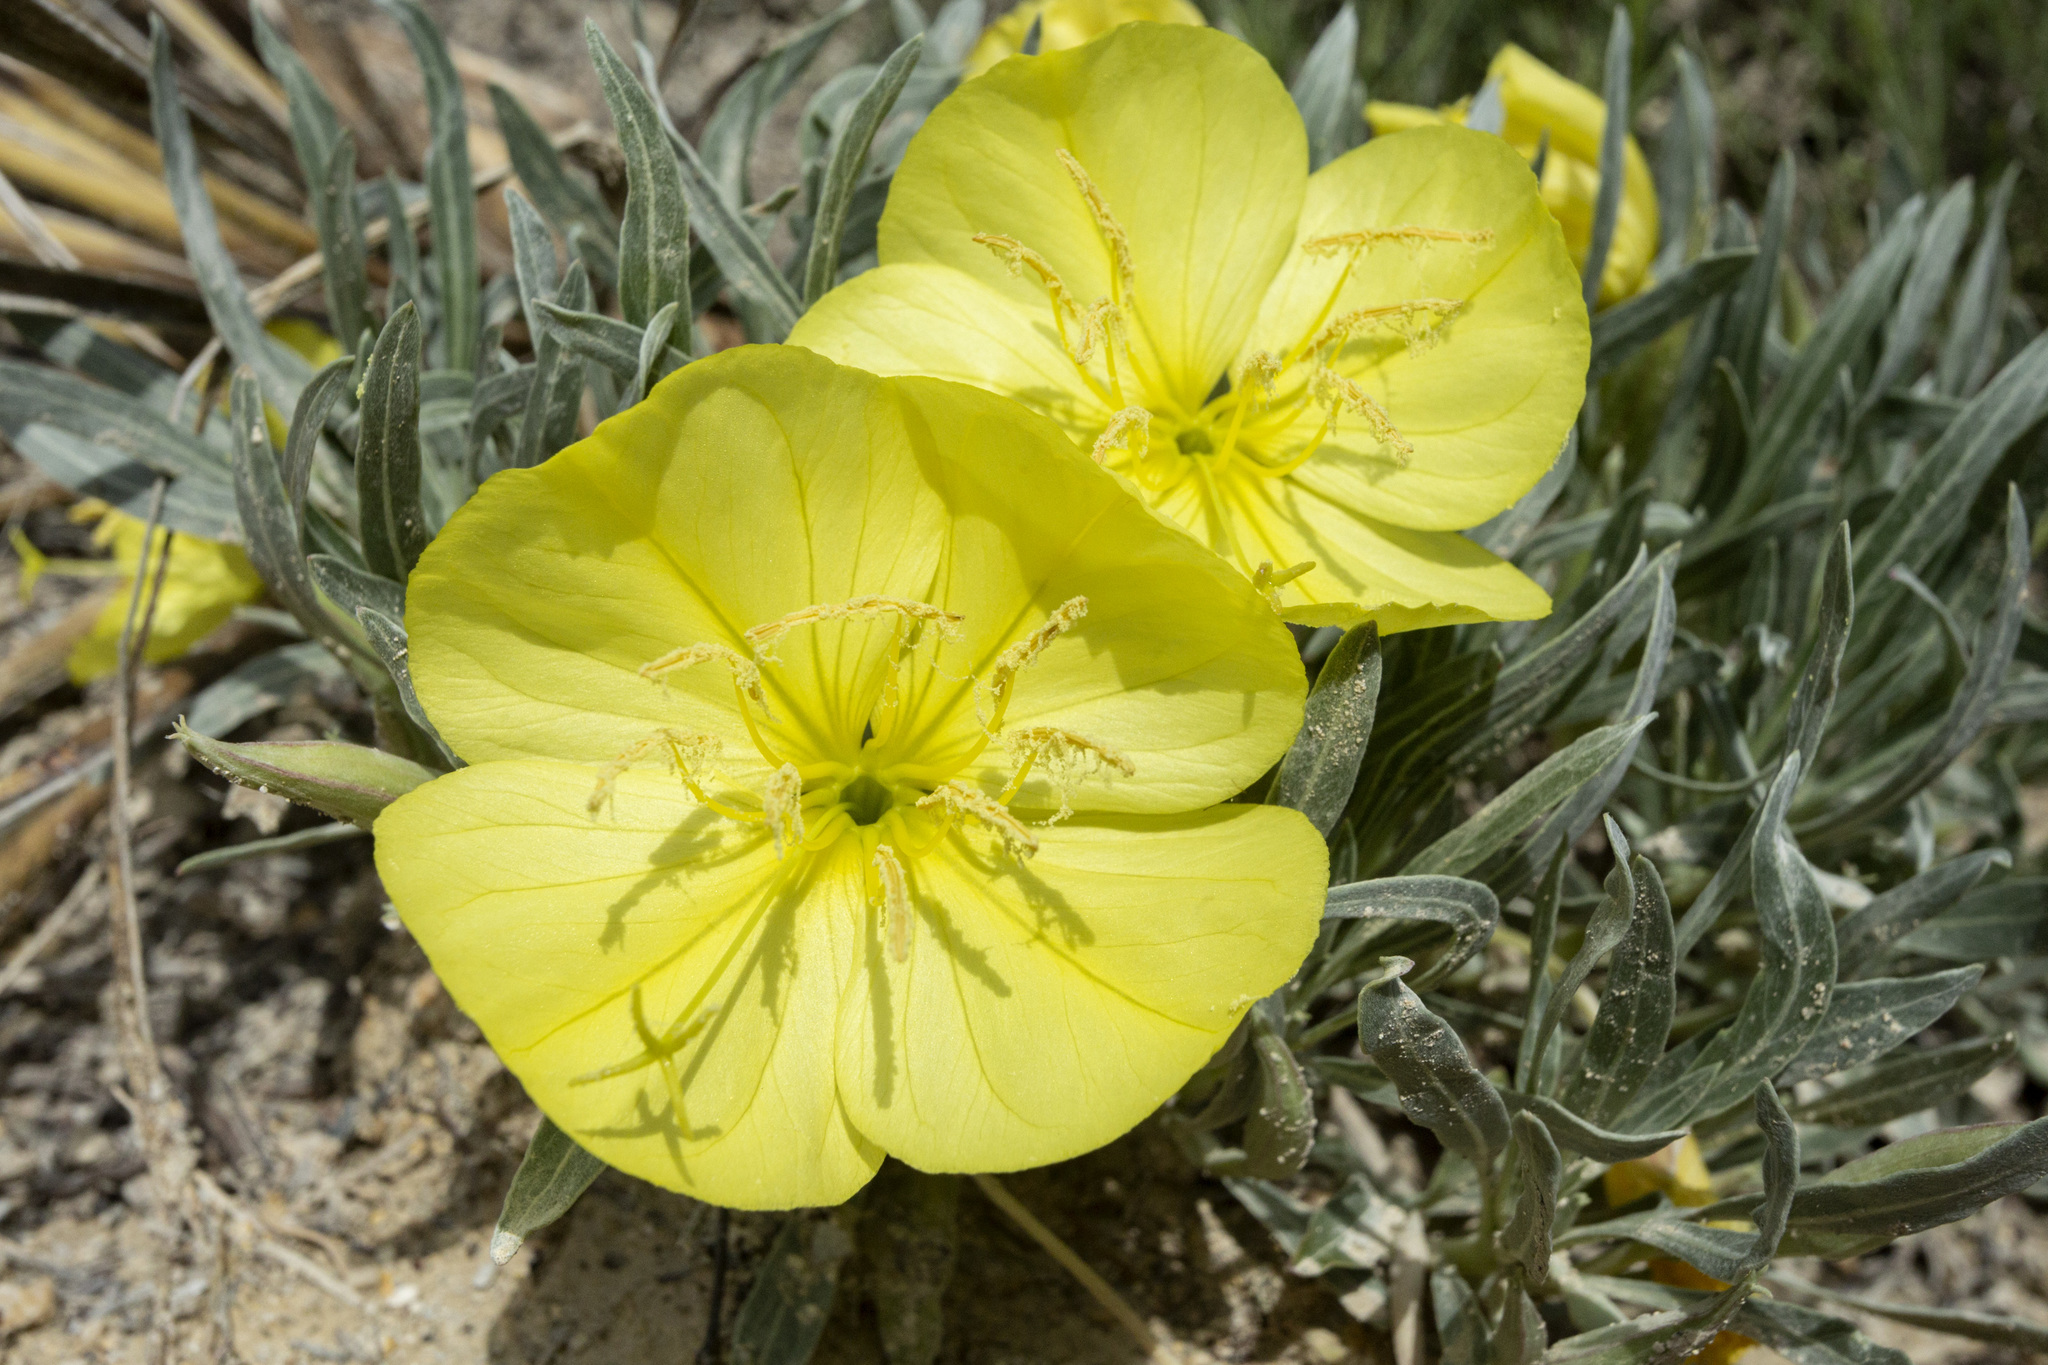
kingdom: Plantae
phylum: Tracheophyta
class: Magnoliopsida
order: Myrtales
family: Onagraceae
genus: Oenothera
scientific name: Oenothera macrocarpa
